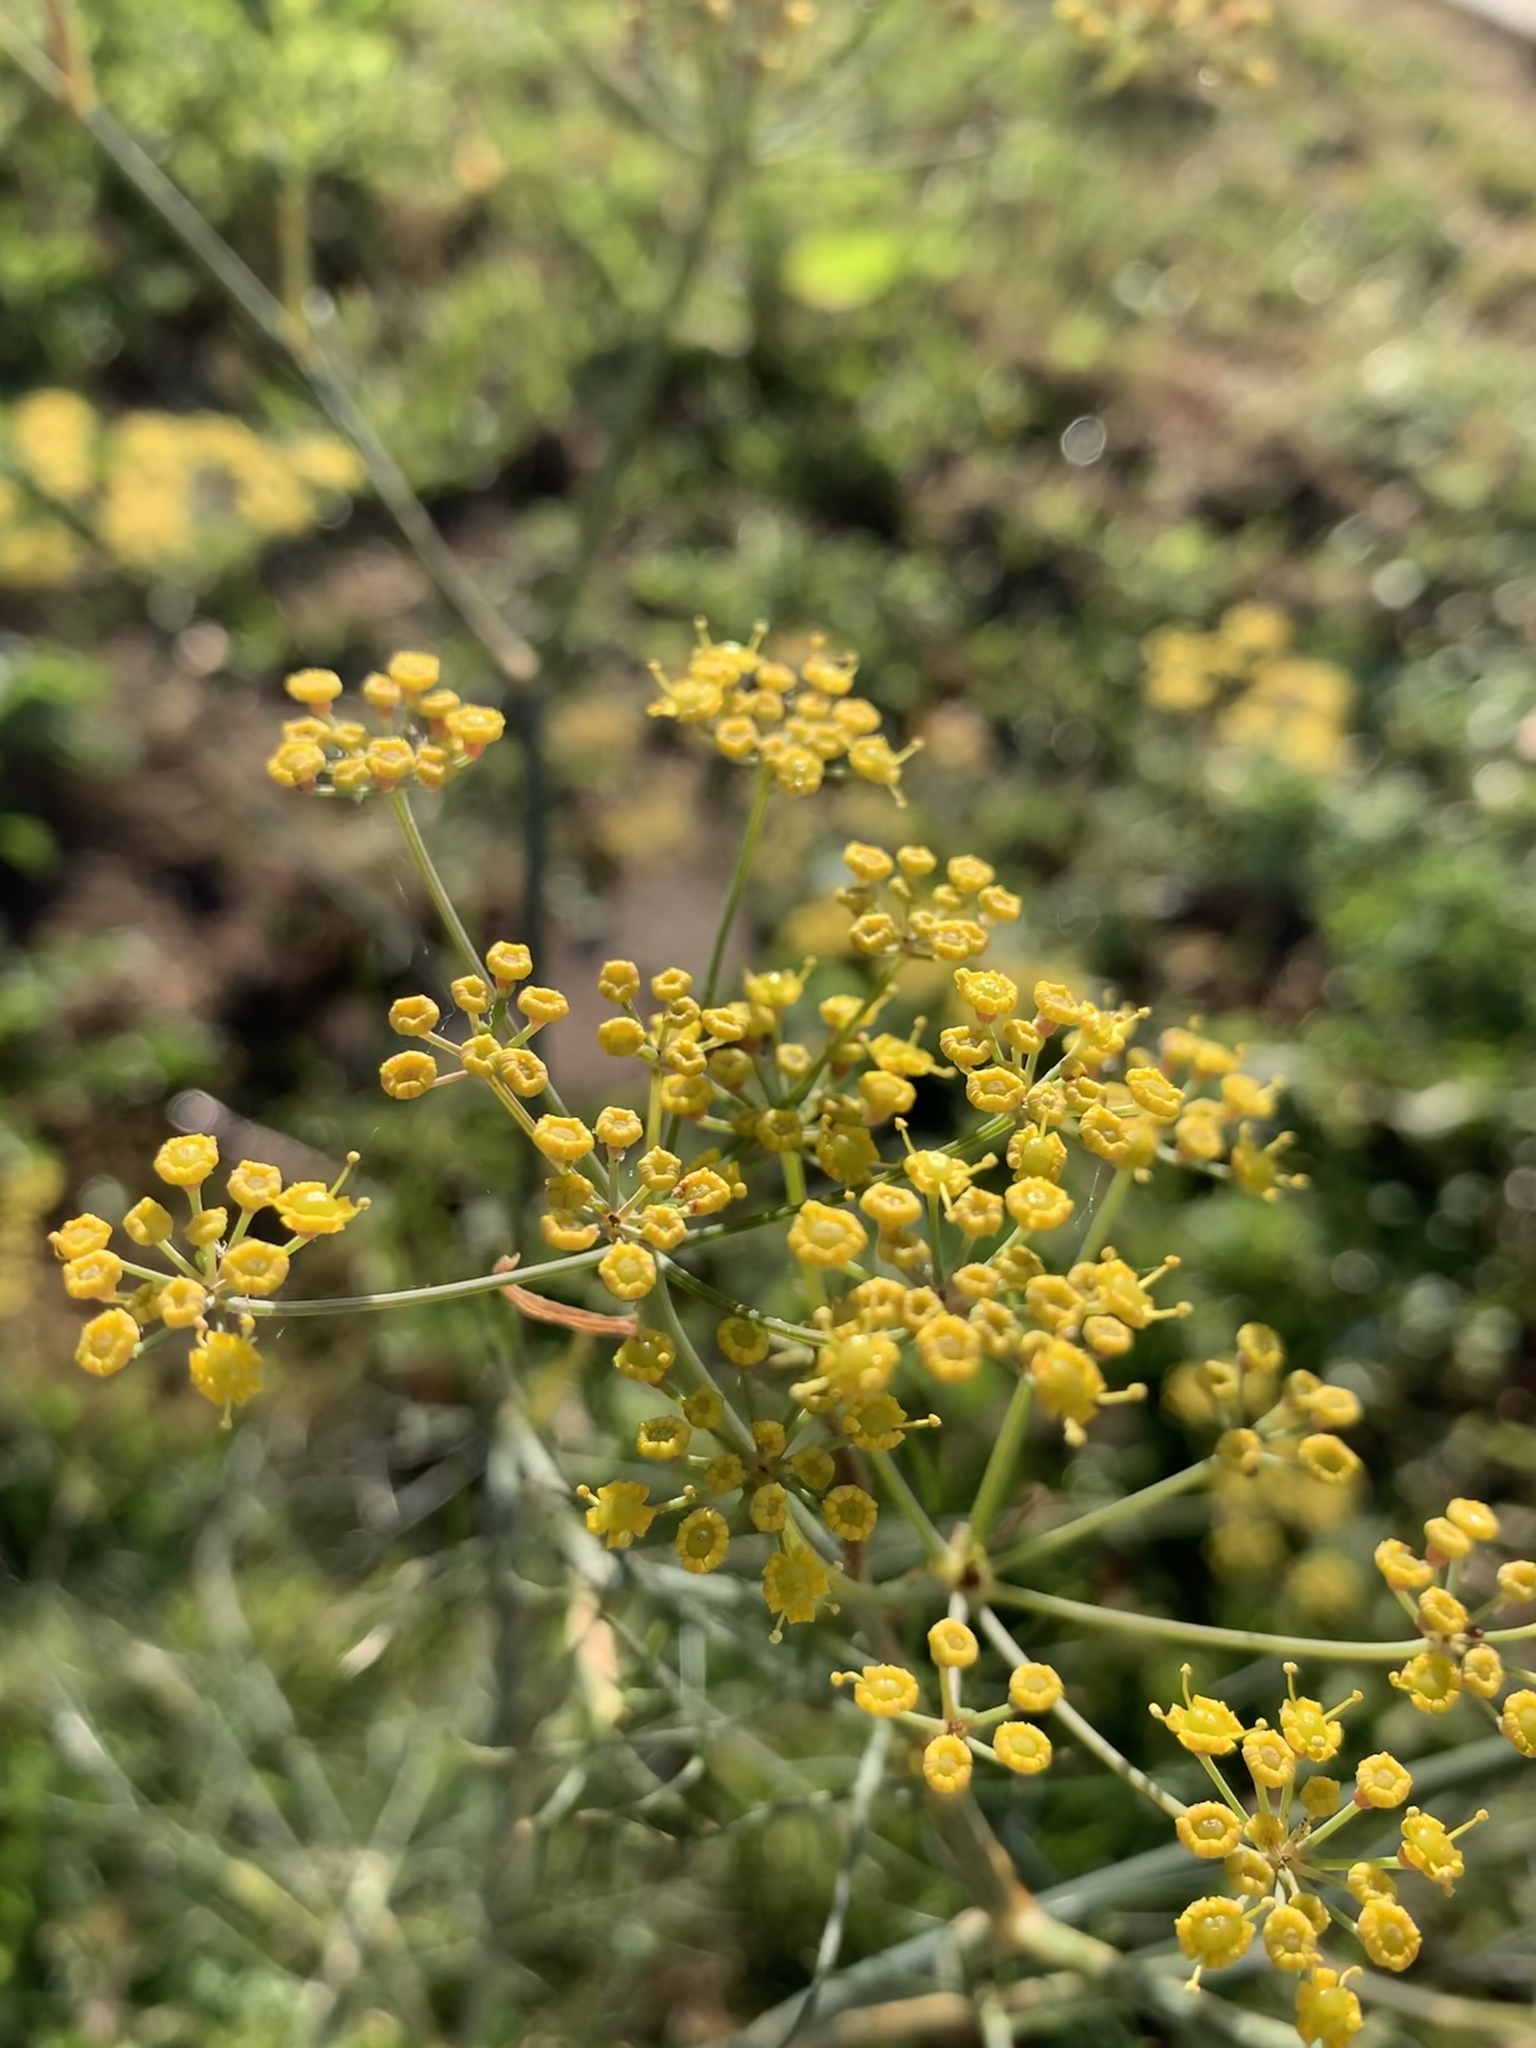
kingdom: Plantae
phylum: Tracheophyta
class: Magnoliopsida
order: Apiales
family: Apiaceae
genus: Foeniculum
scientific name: Foeniculum vulgare
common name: Fennel
